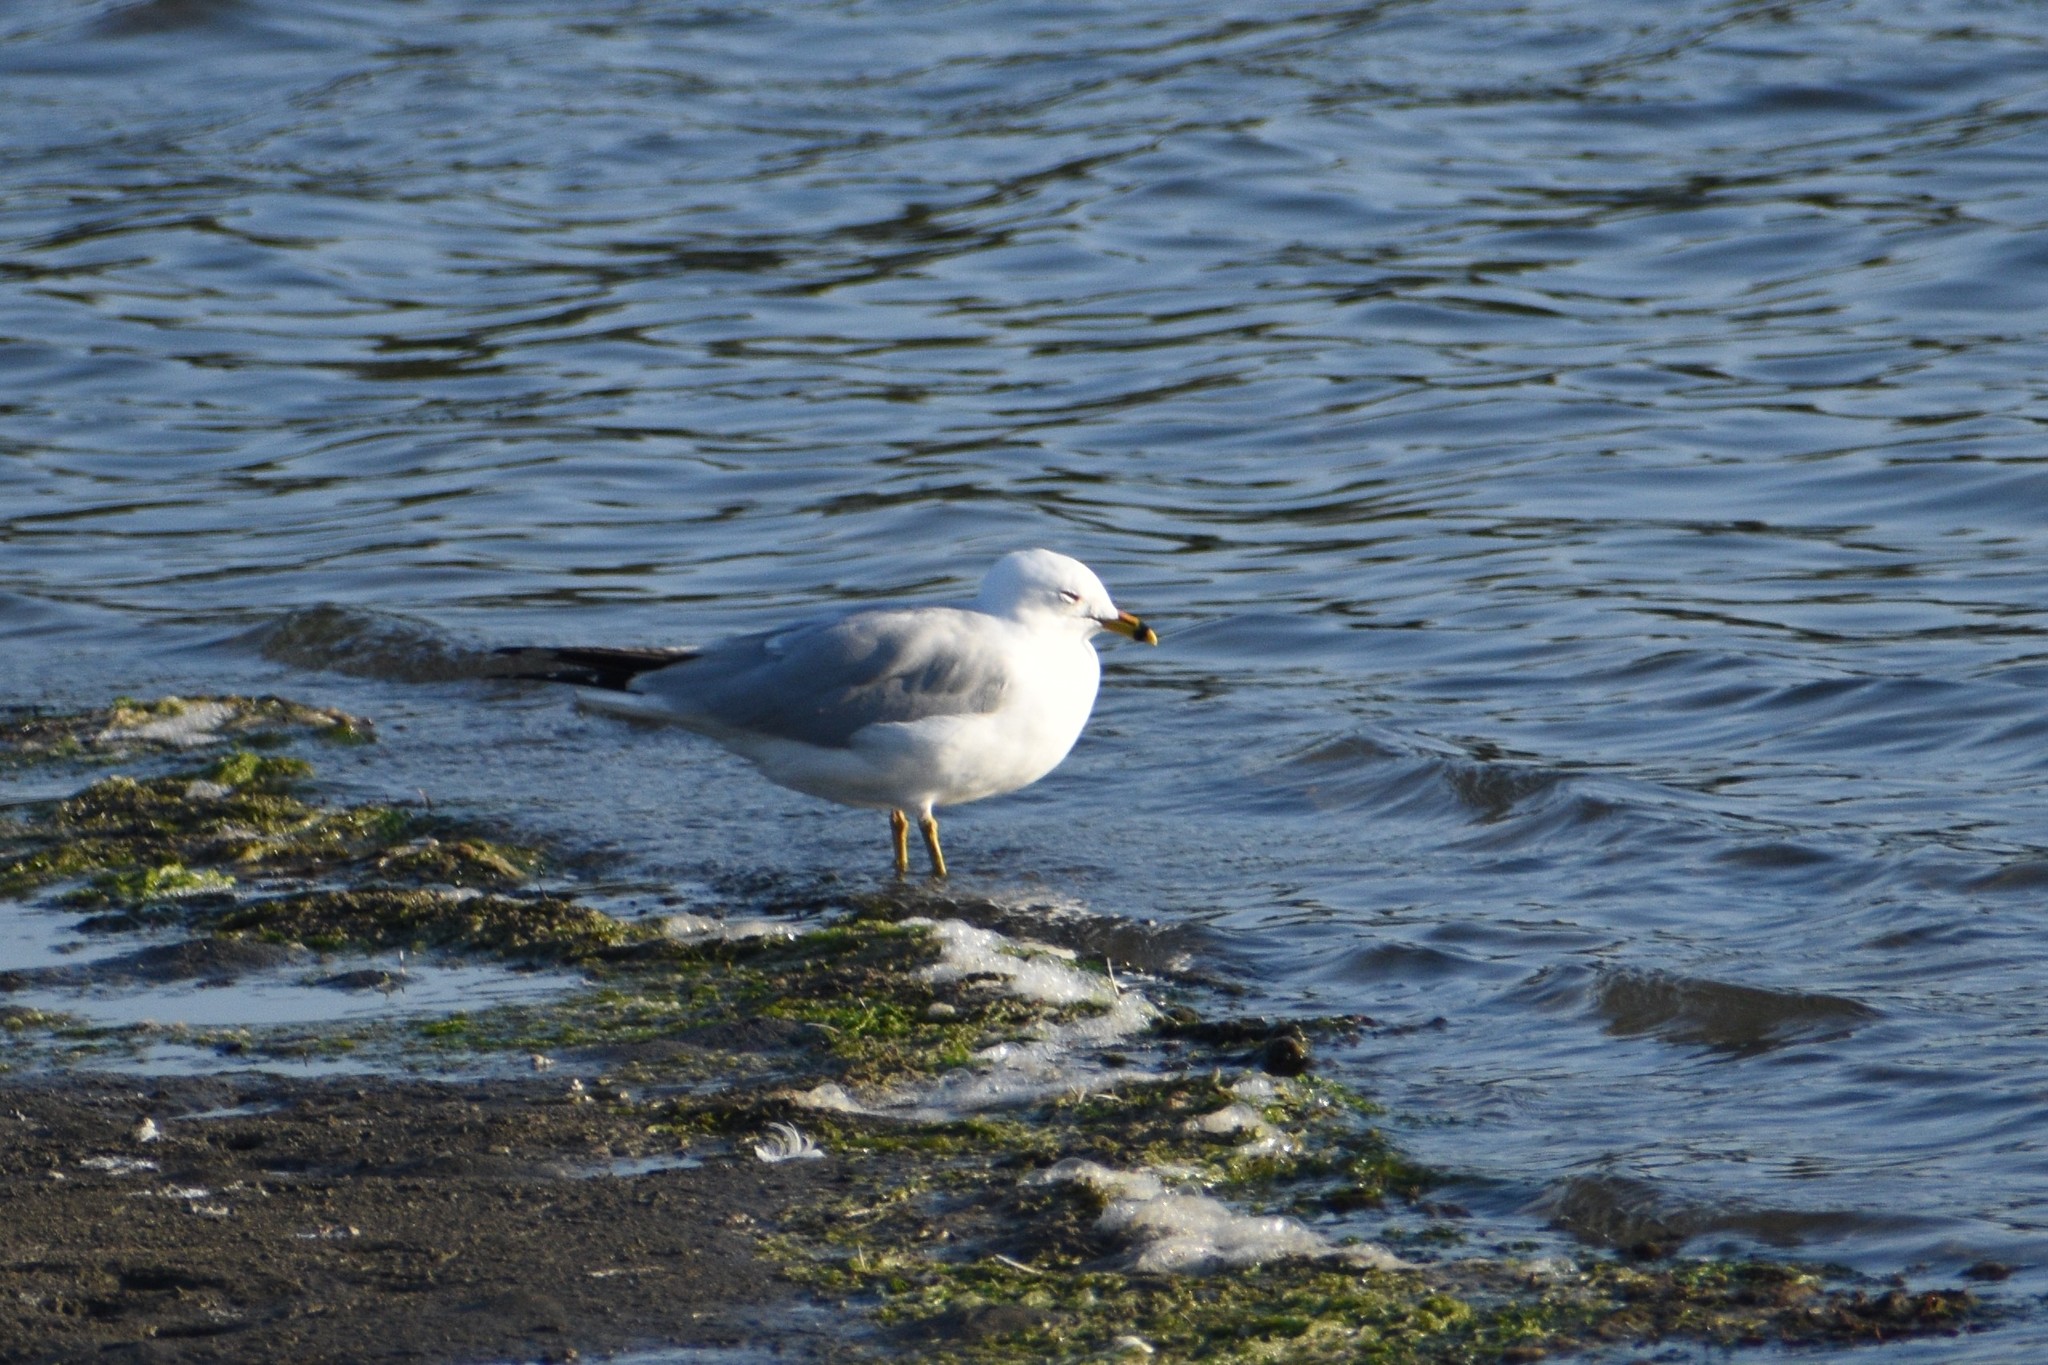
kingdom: Animalia
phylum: Chordata
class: Aves
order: Charadriiformes
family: Laridae
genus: Larus
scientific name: Larus delawarensis
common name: Ring-billed gull
